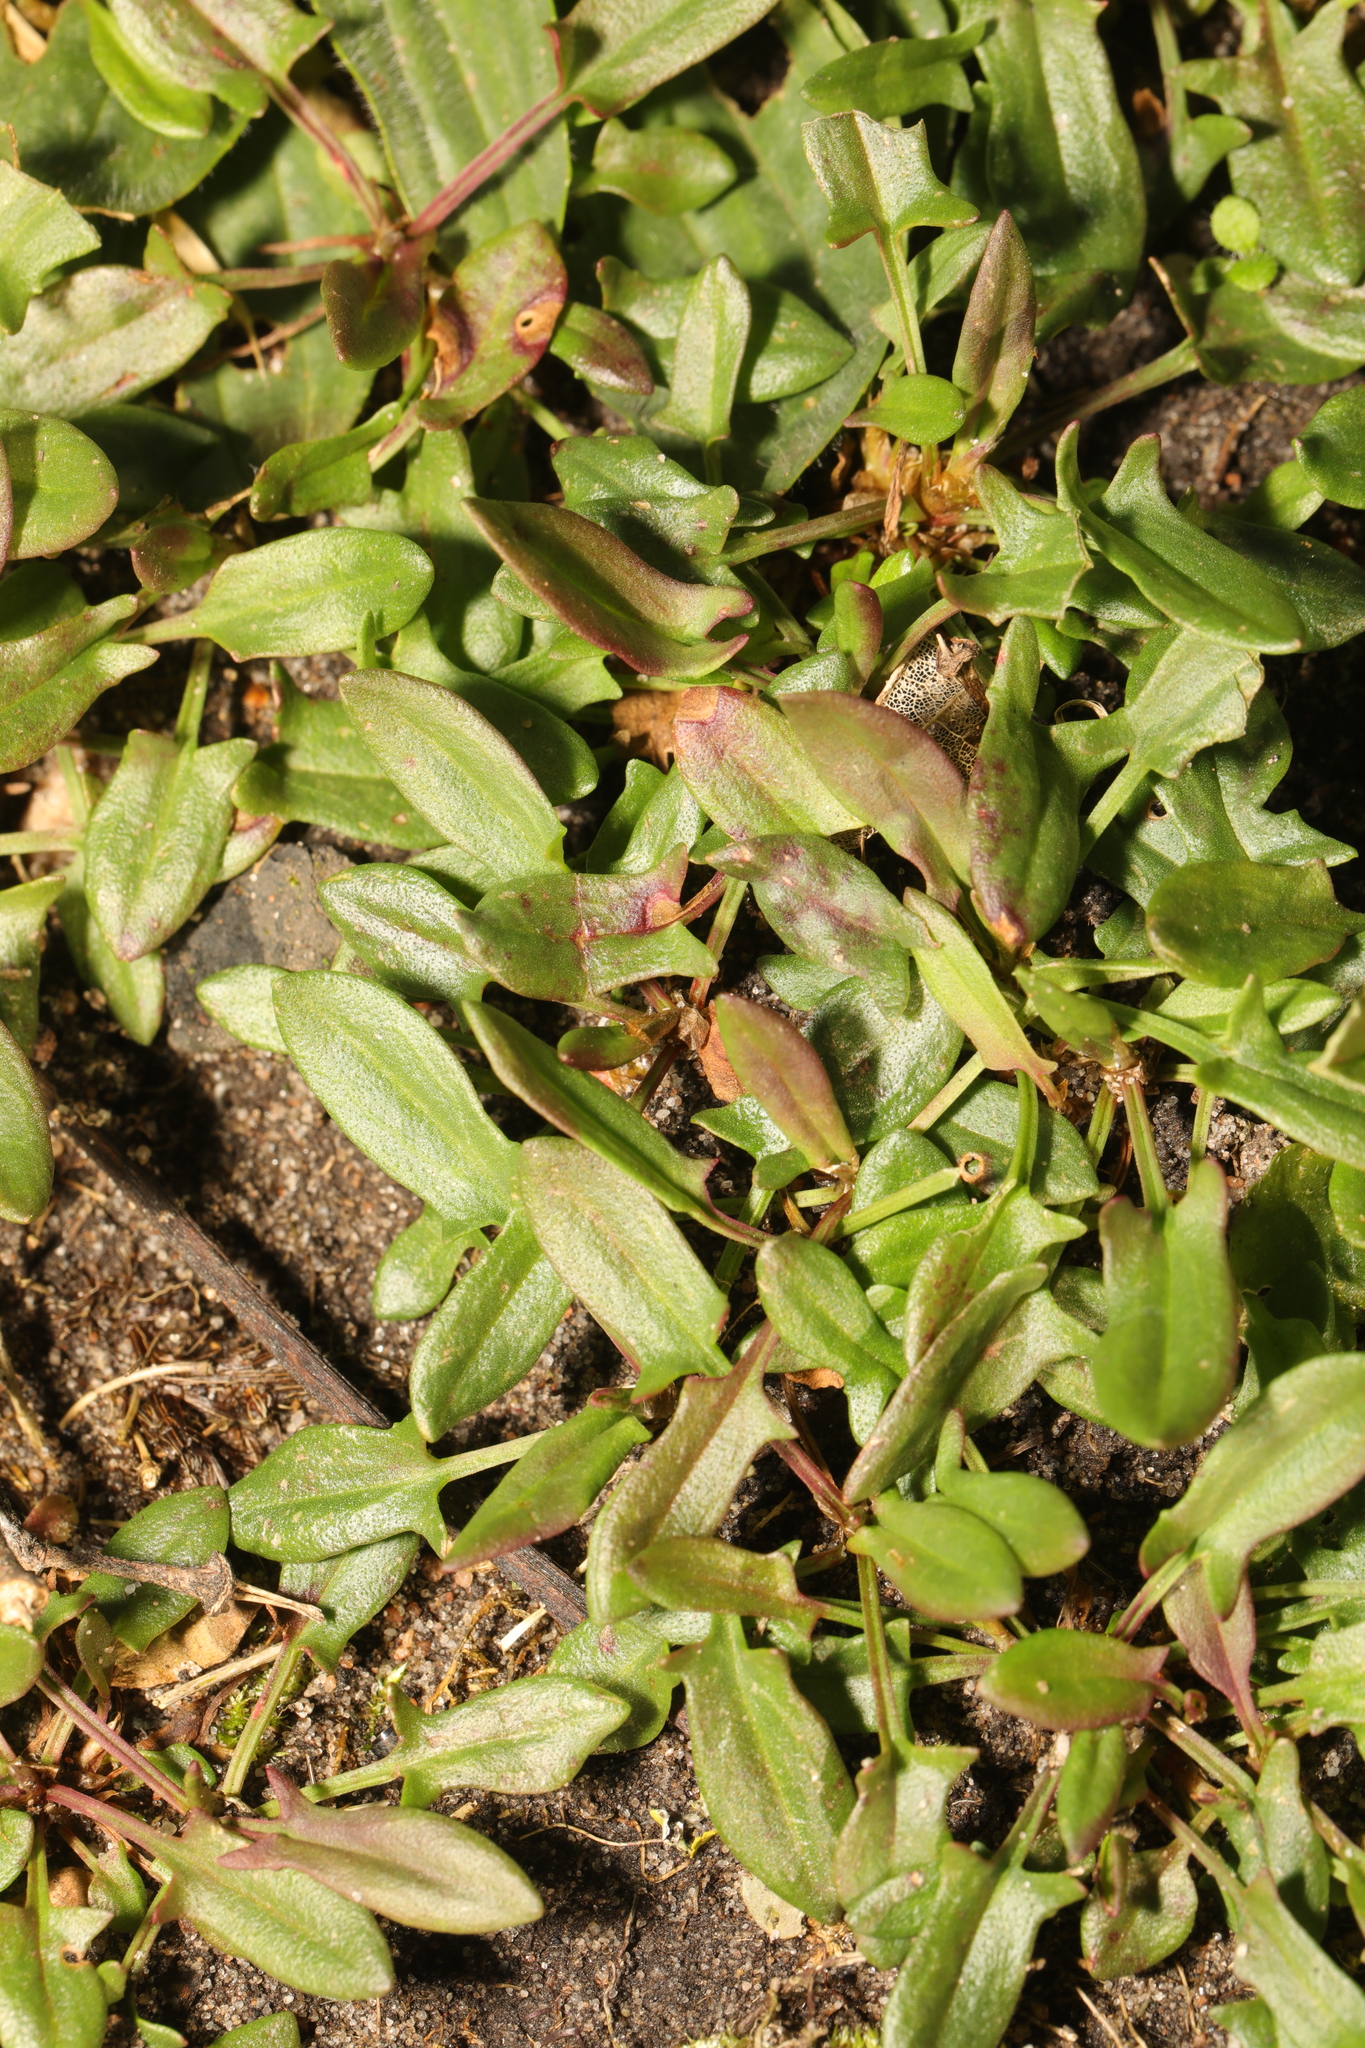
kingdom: Plantae
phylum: Tracheophyta
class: Magnoliopsida
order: Caryophyllales
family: Polygonaceae
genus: Rumex
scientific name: Rumex acetosella
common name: Common sheep sorrel
